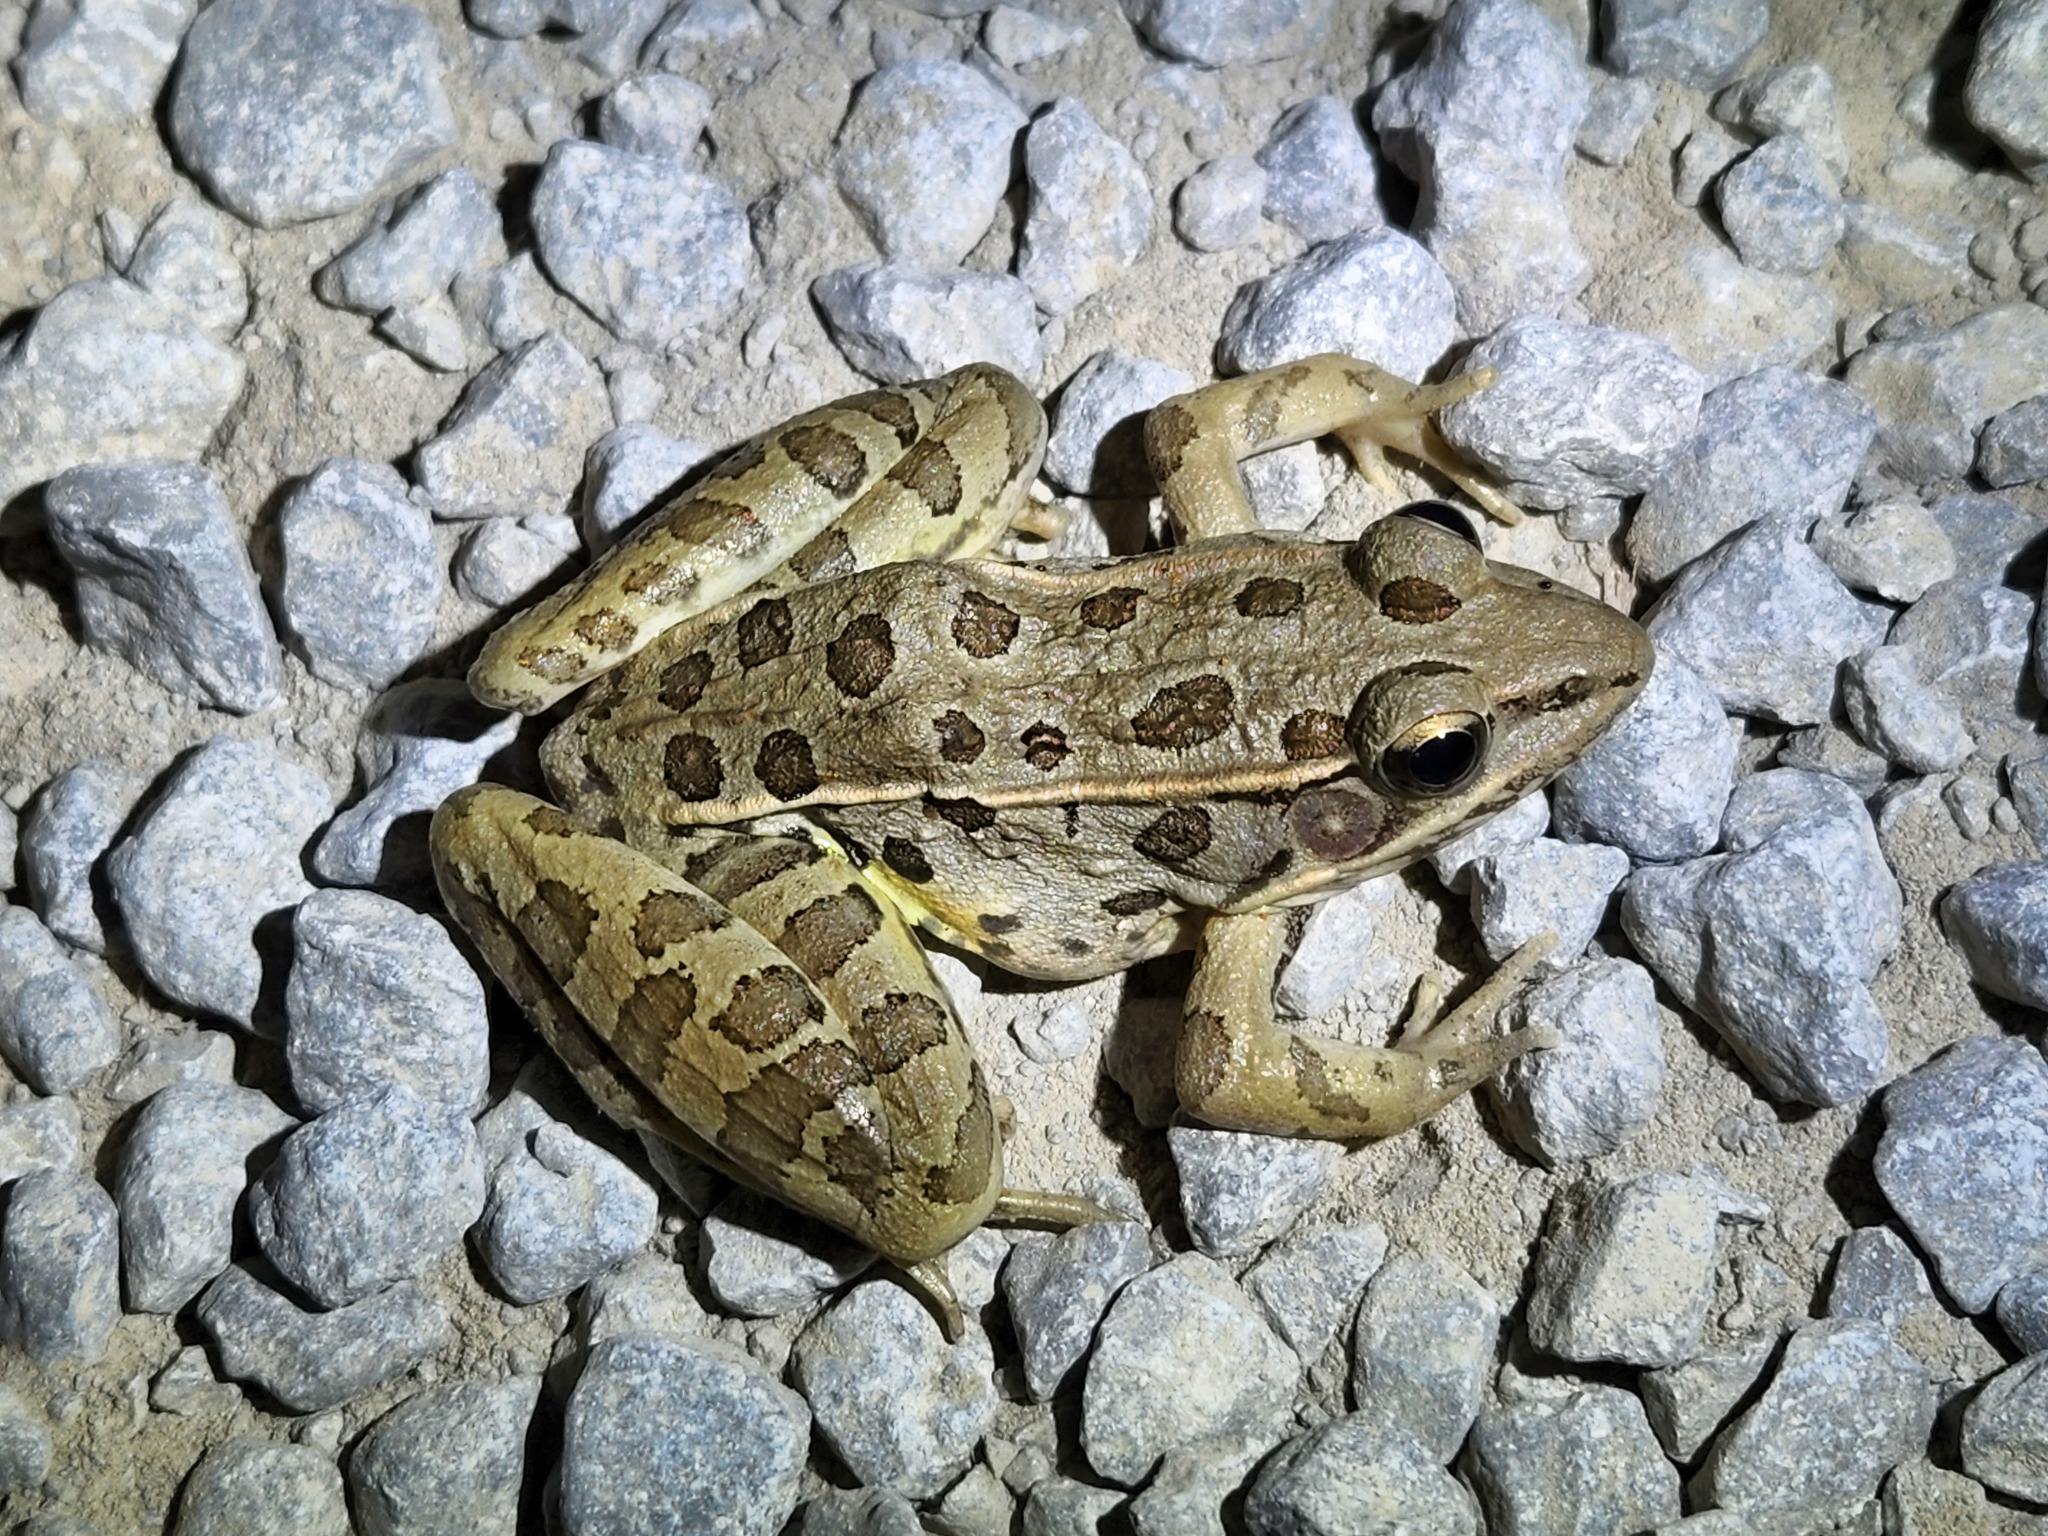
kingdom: Animalia
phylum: Chordata
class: Amphibia
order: Anura
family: Ranidae
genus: Lithobates
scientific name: Lithobates sphenocephalus
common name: Southern leopard frog
